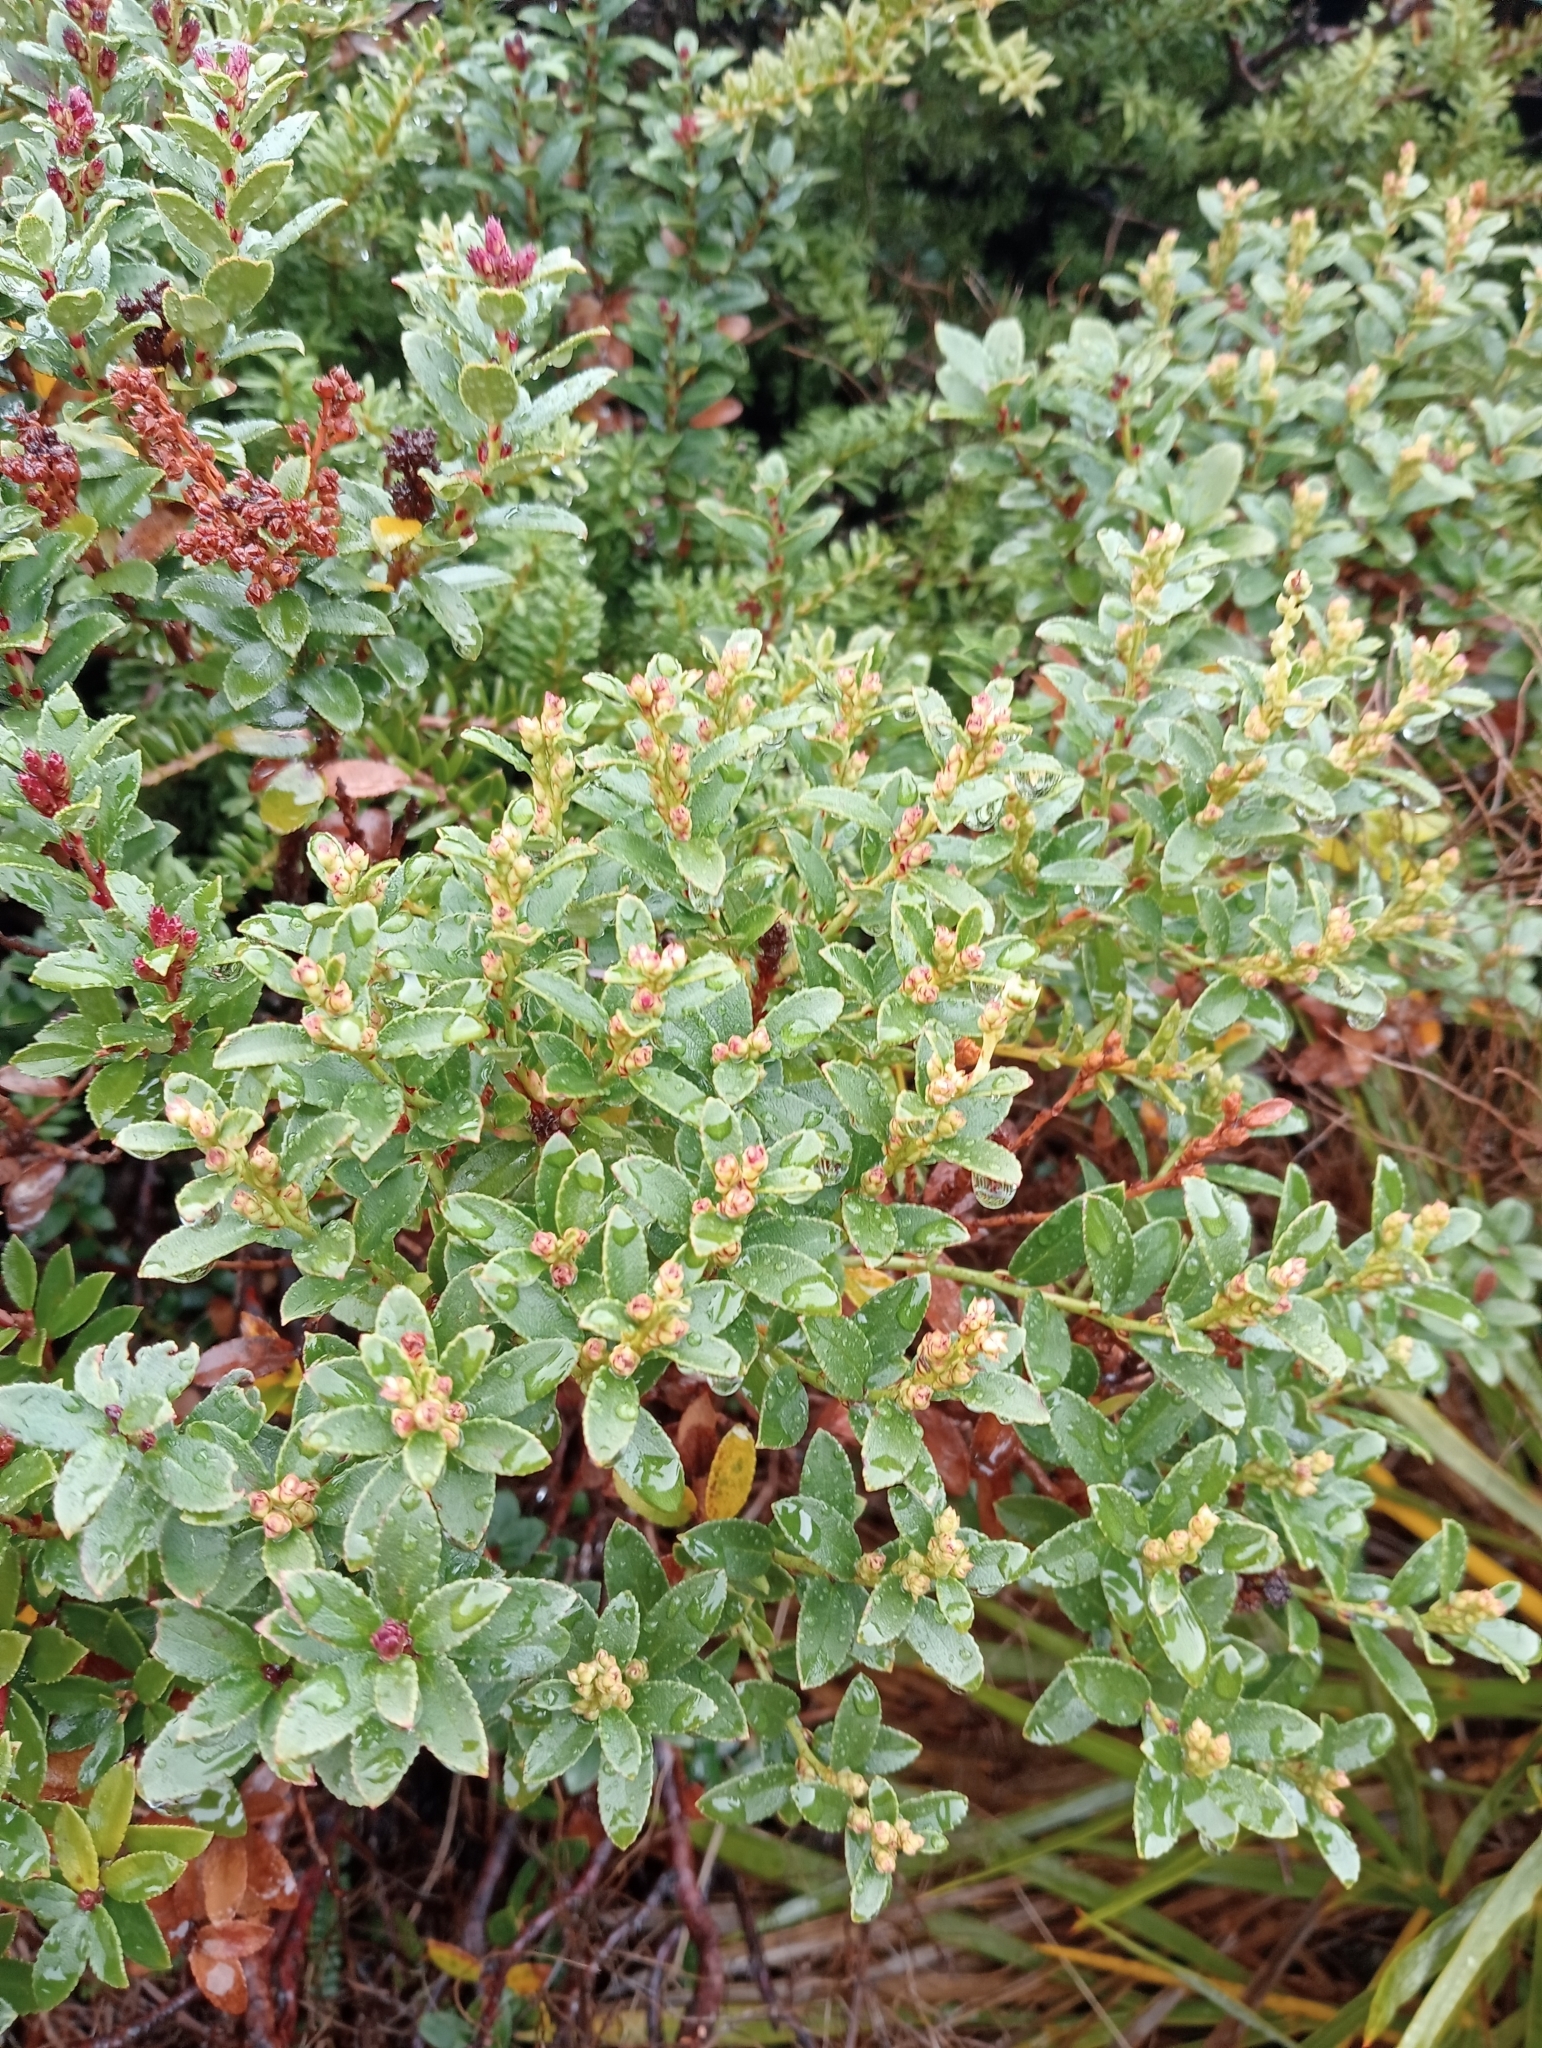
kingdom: Plantae
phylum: Tracheophyta
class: Magnoliopsida
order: Ericales
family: Ericaceae
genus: Gaultheria
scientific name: Gaultheria crassa
